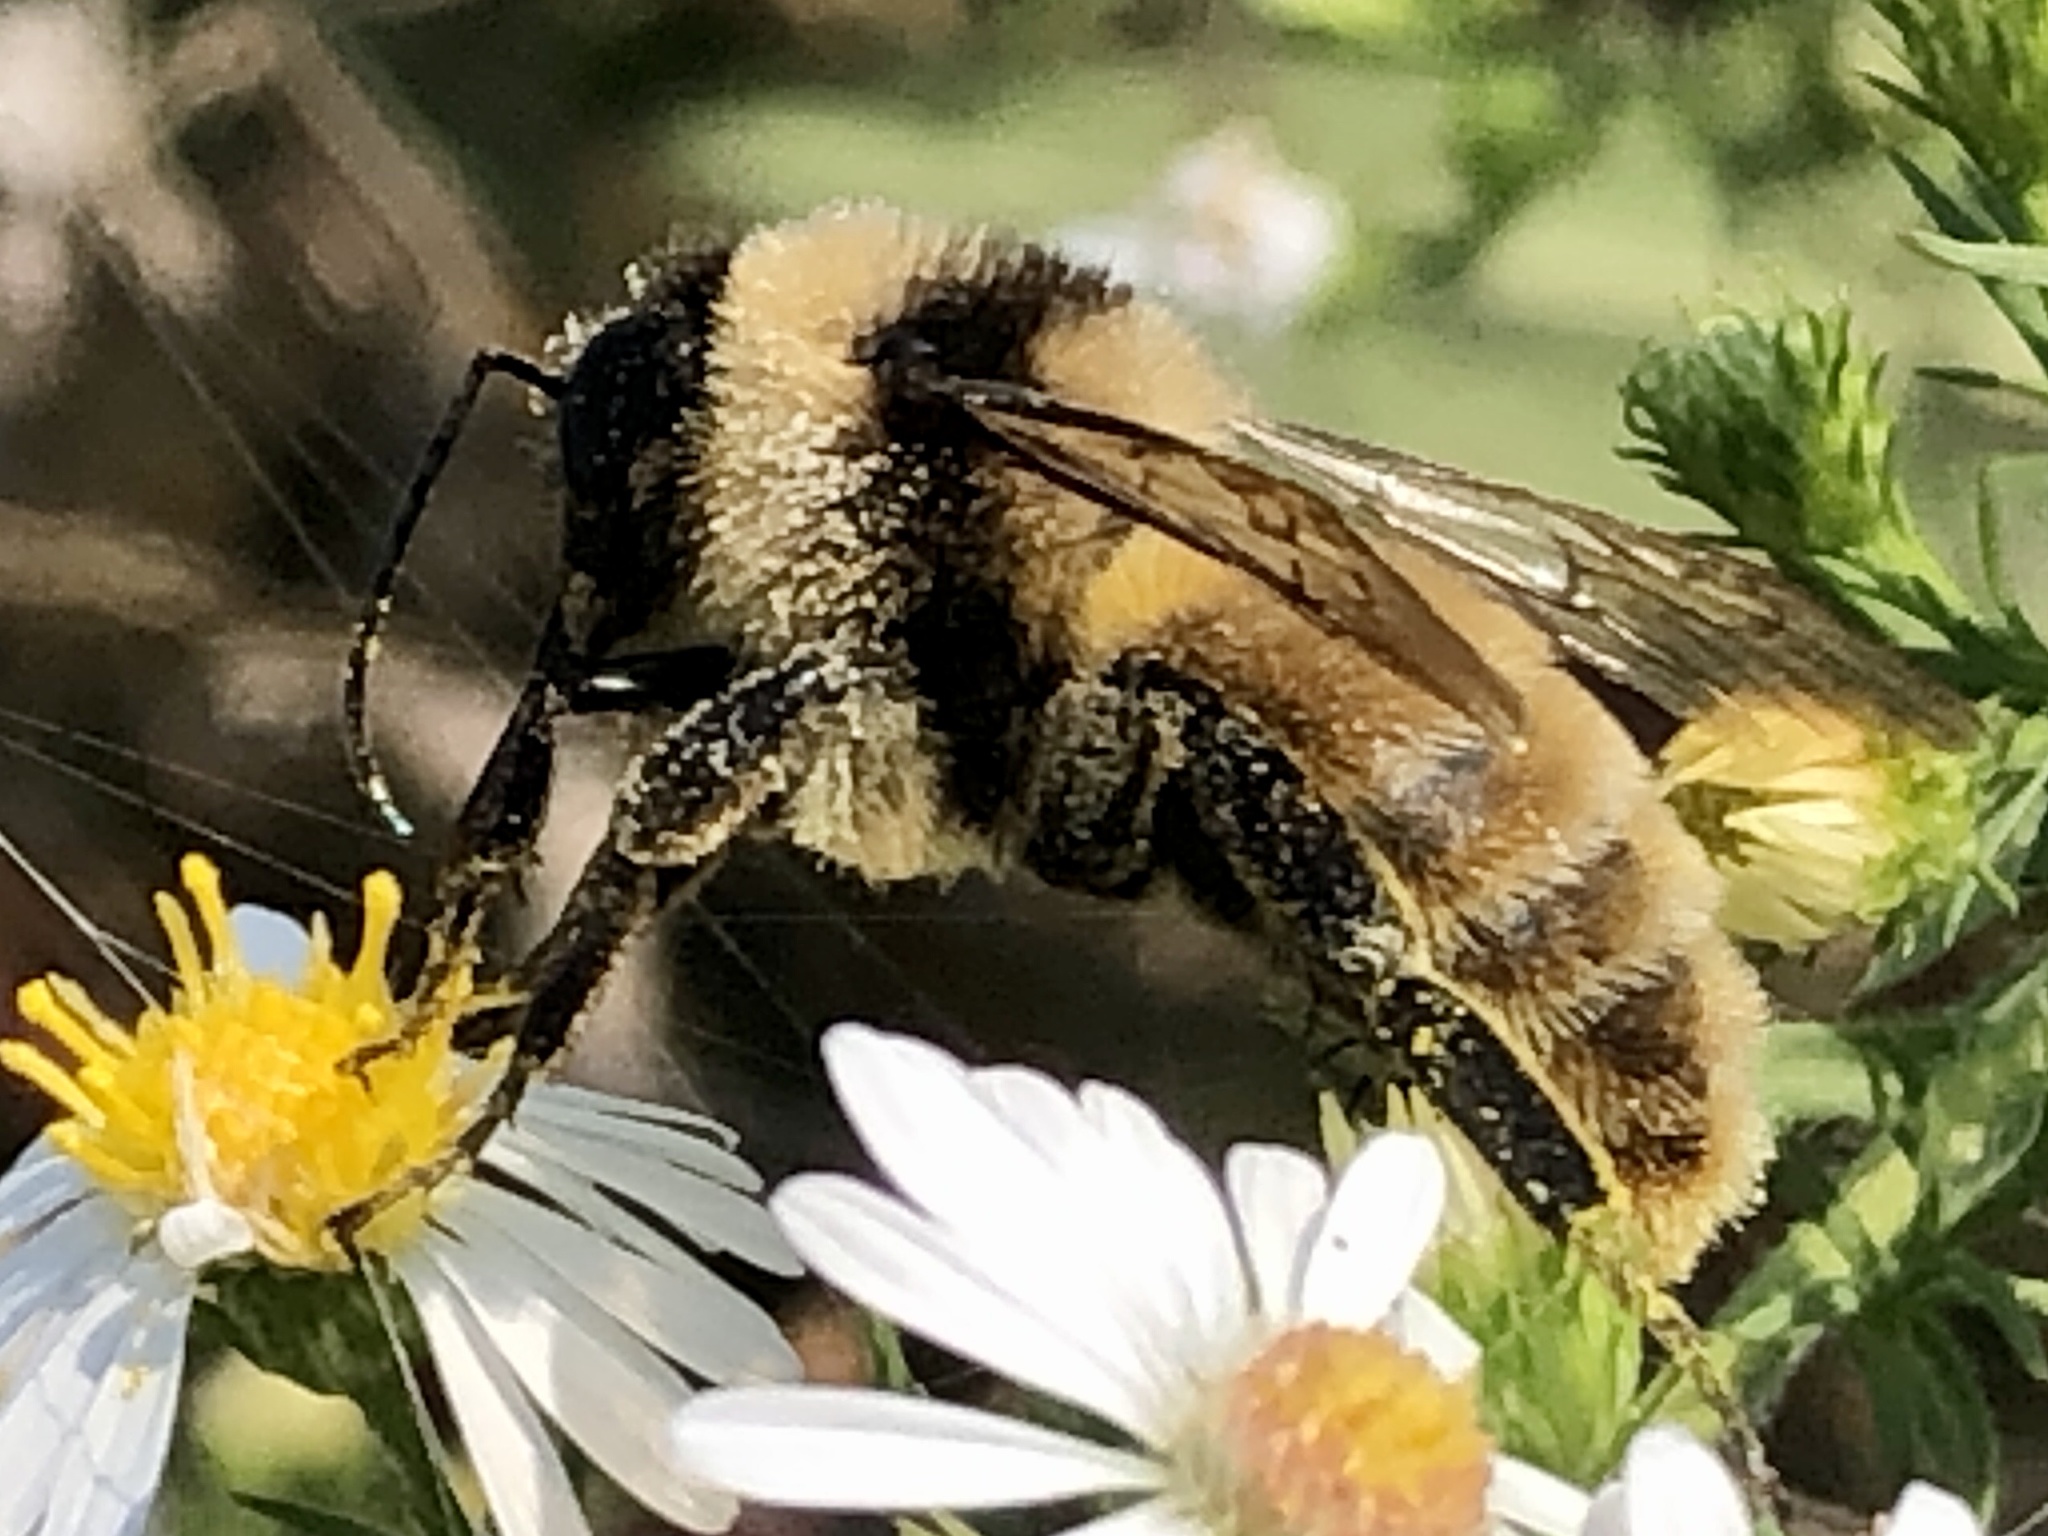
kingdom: Animalia
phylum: Arthropoda
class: Insecta
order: Hymenoptera
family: Apidae
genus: Bombus
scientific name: Bombus pensylvanicus
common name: Bumble bee
